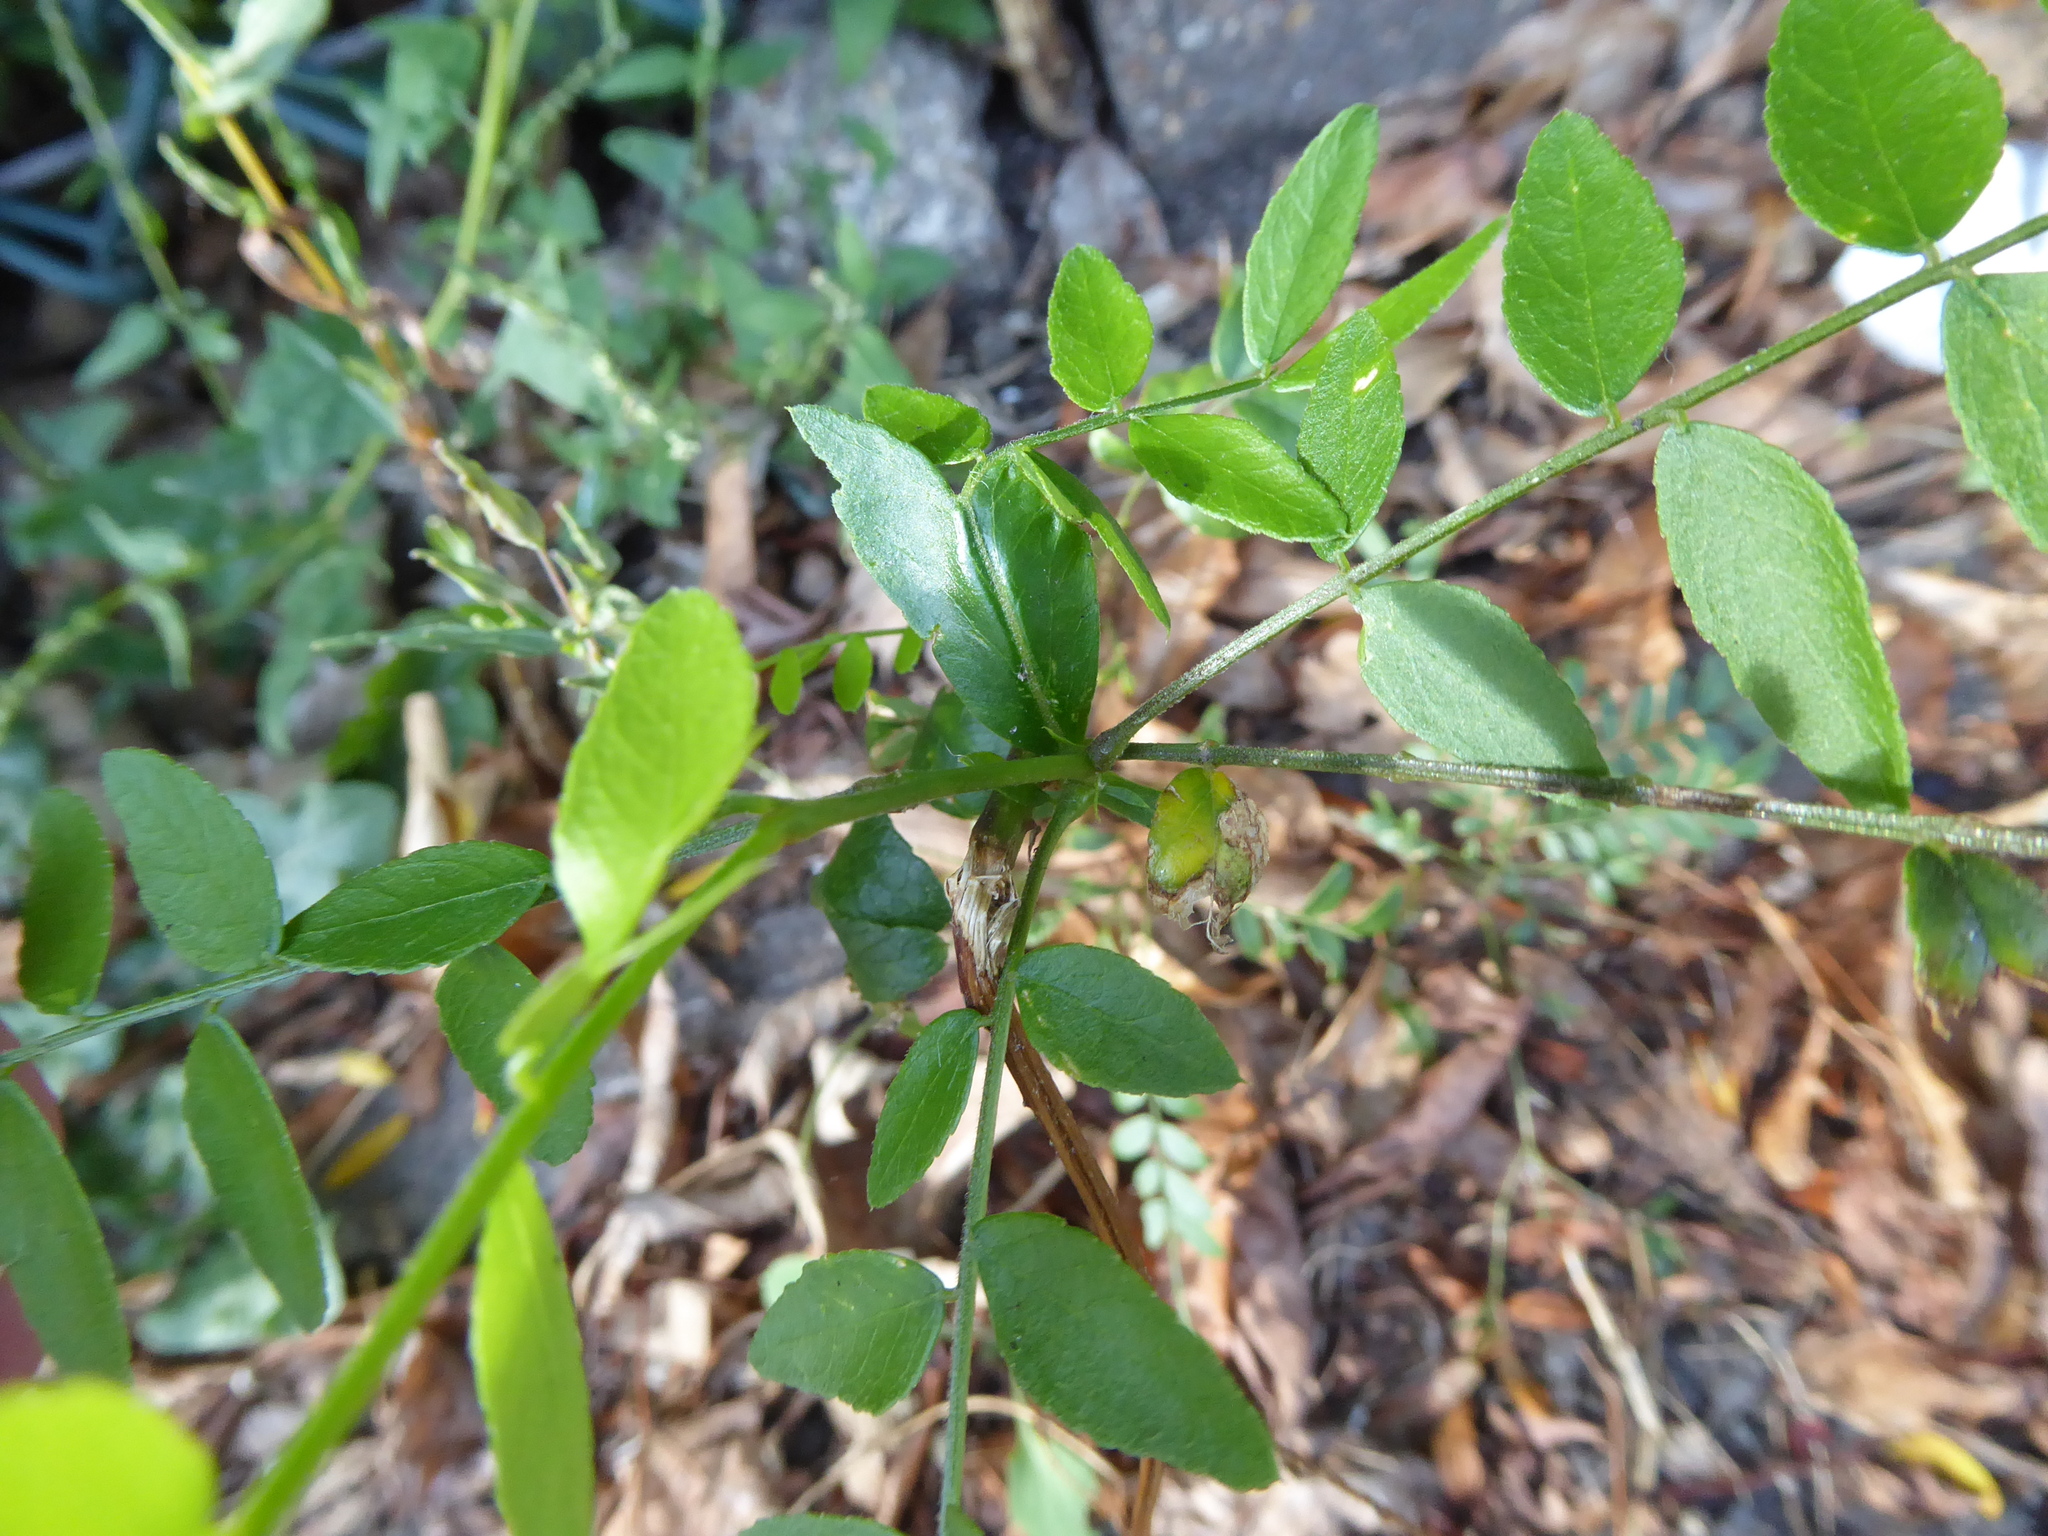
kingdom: Plantae
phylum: Tracheophyta
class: Magnoliopsida
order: Fabales
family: Fabaceae
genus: Gleditsia
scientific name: Gleditsia triacanthos
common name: Common honeylocust
